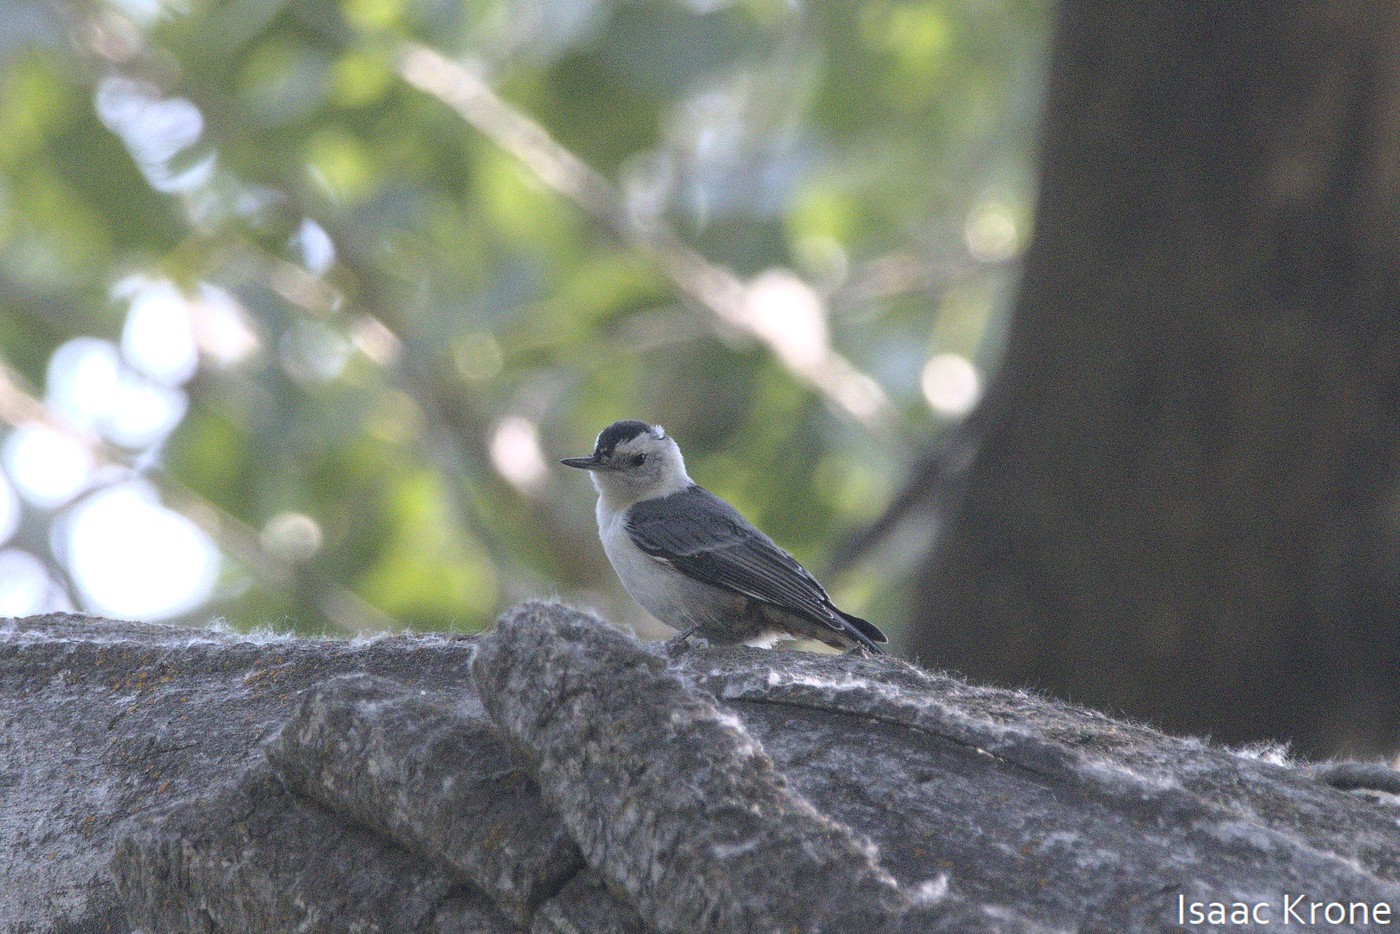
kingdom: Animalia
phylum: Chordata
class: Aves
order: Passeriformes
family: Sittidae
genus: Sitta
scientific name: Sitta carolinensis
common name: White-breasted nuthatch
